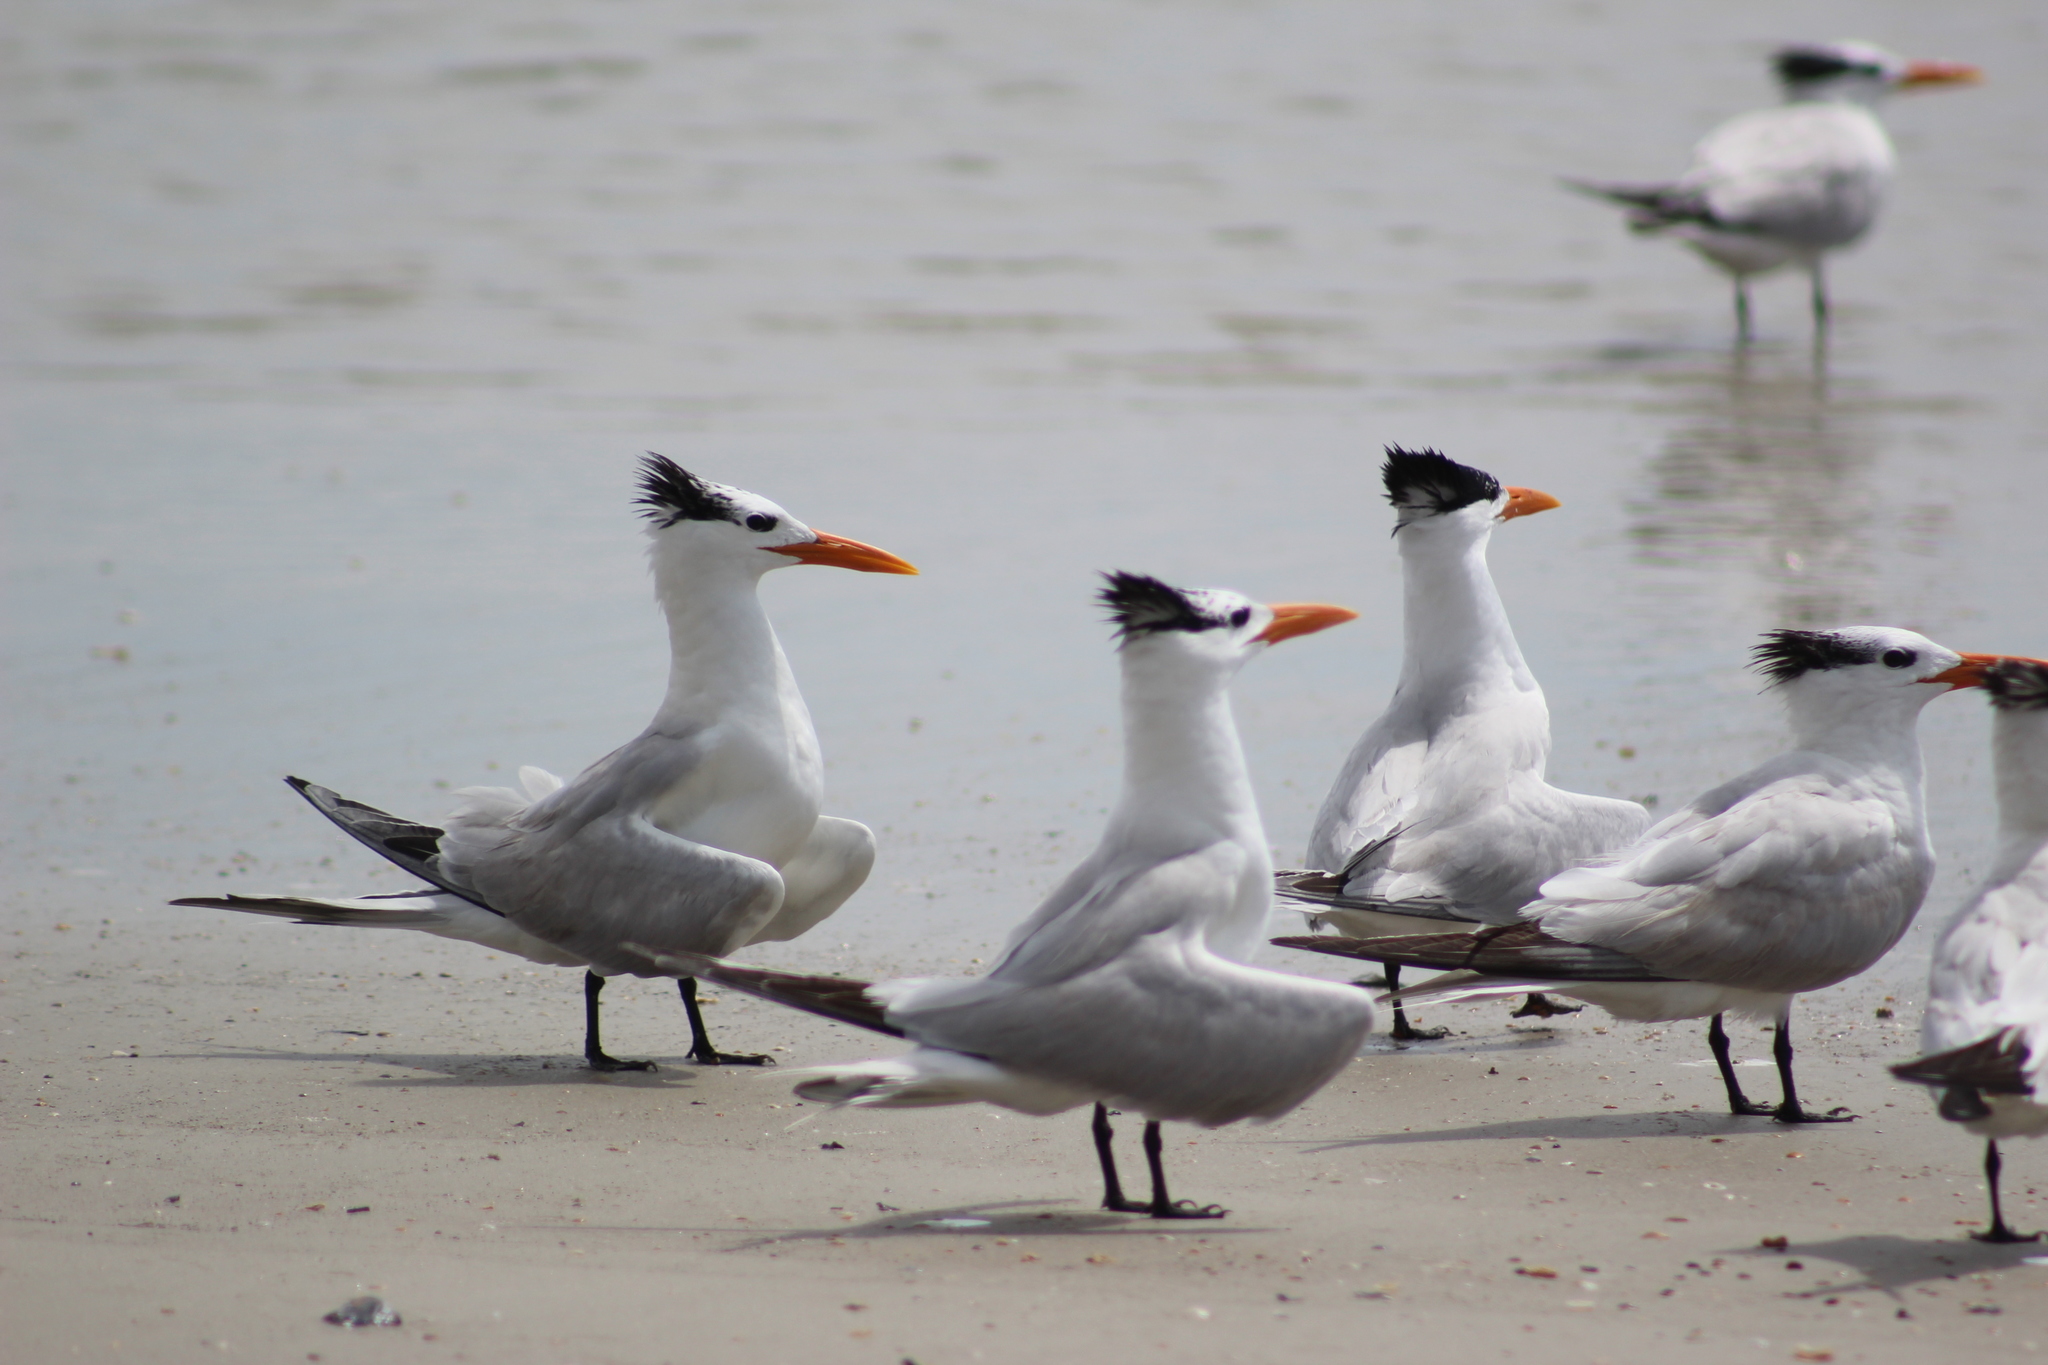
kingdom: Animalia
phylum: Chordata
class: Aves
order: Charadriiformes
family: Laridae
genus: Thalasseus
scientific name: Thalasseus maximus
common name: Royal tern
